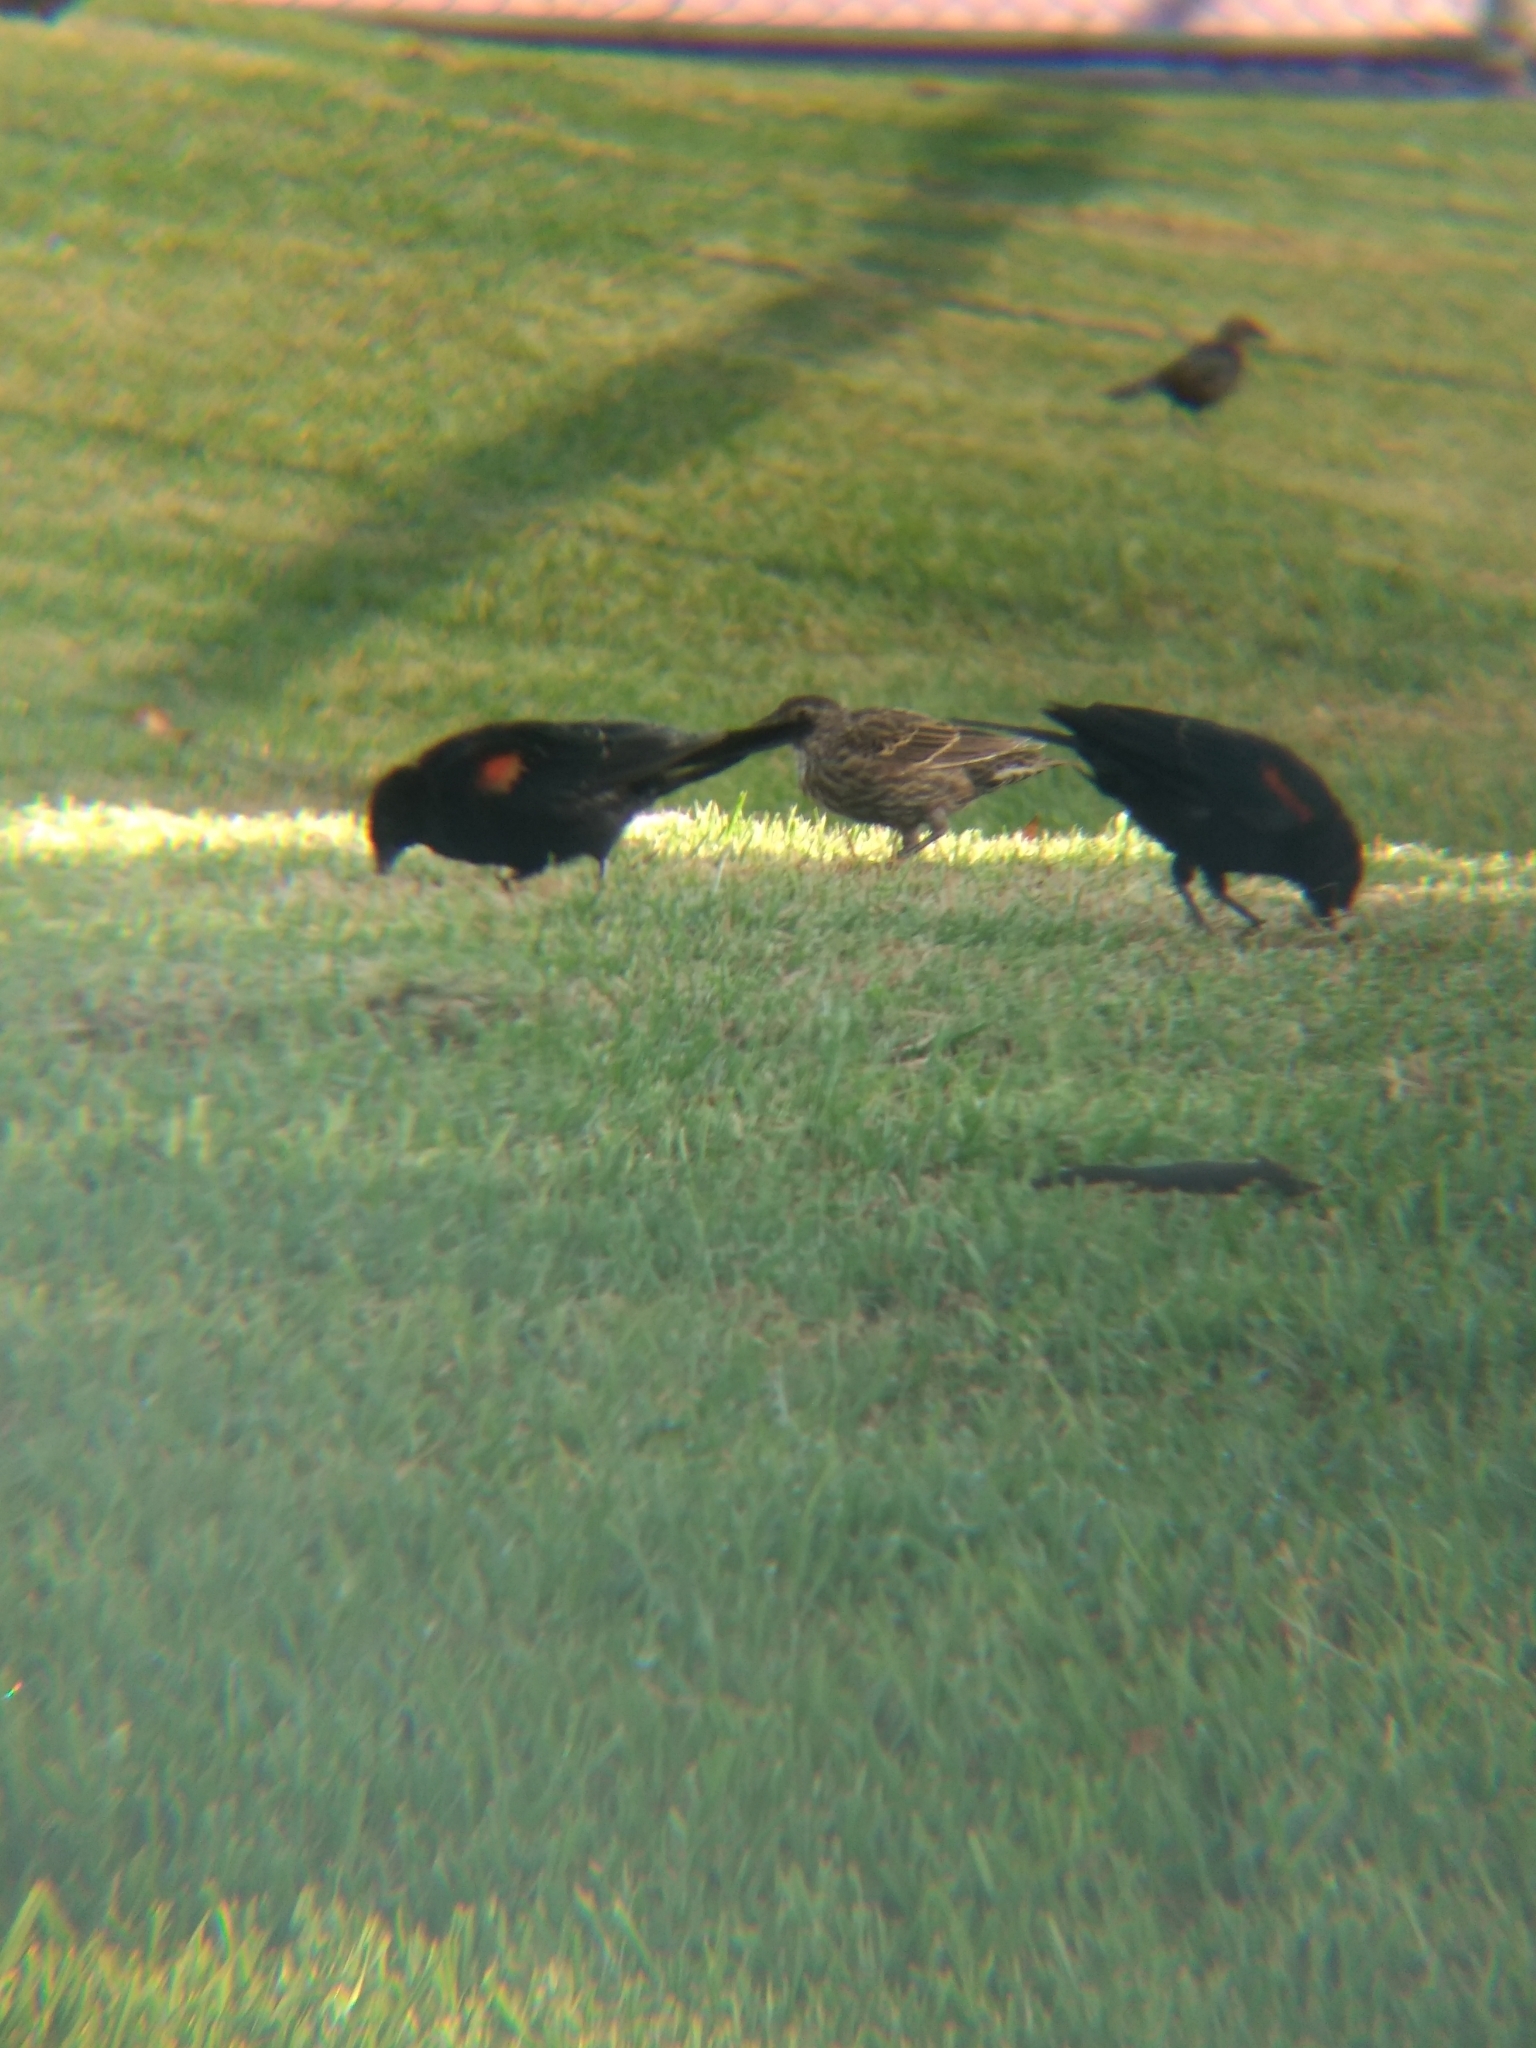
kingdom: Animalia
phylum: Chordata
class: Aves
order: Passeriformes
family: Icteridae
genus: Agelaius
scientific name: Agelaius phoeniceus
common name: Red-winged blackbird
